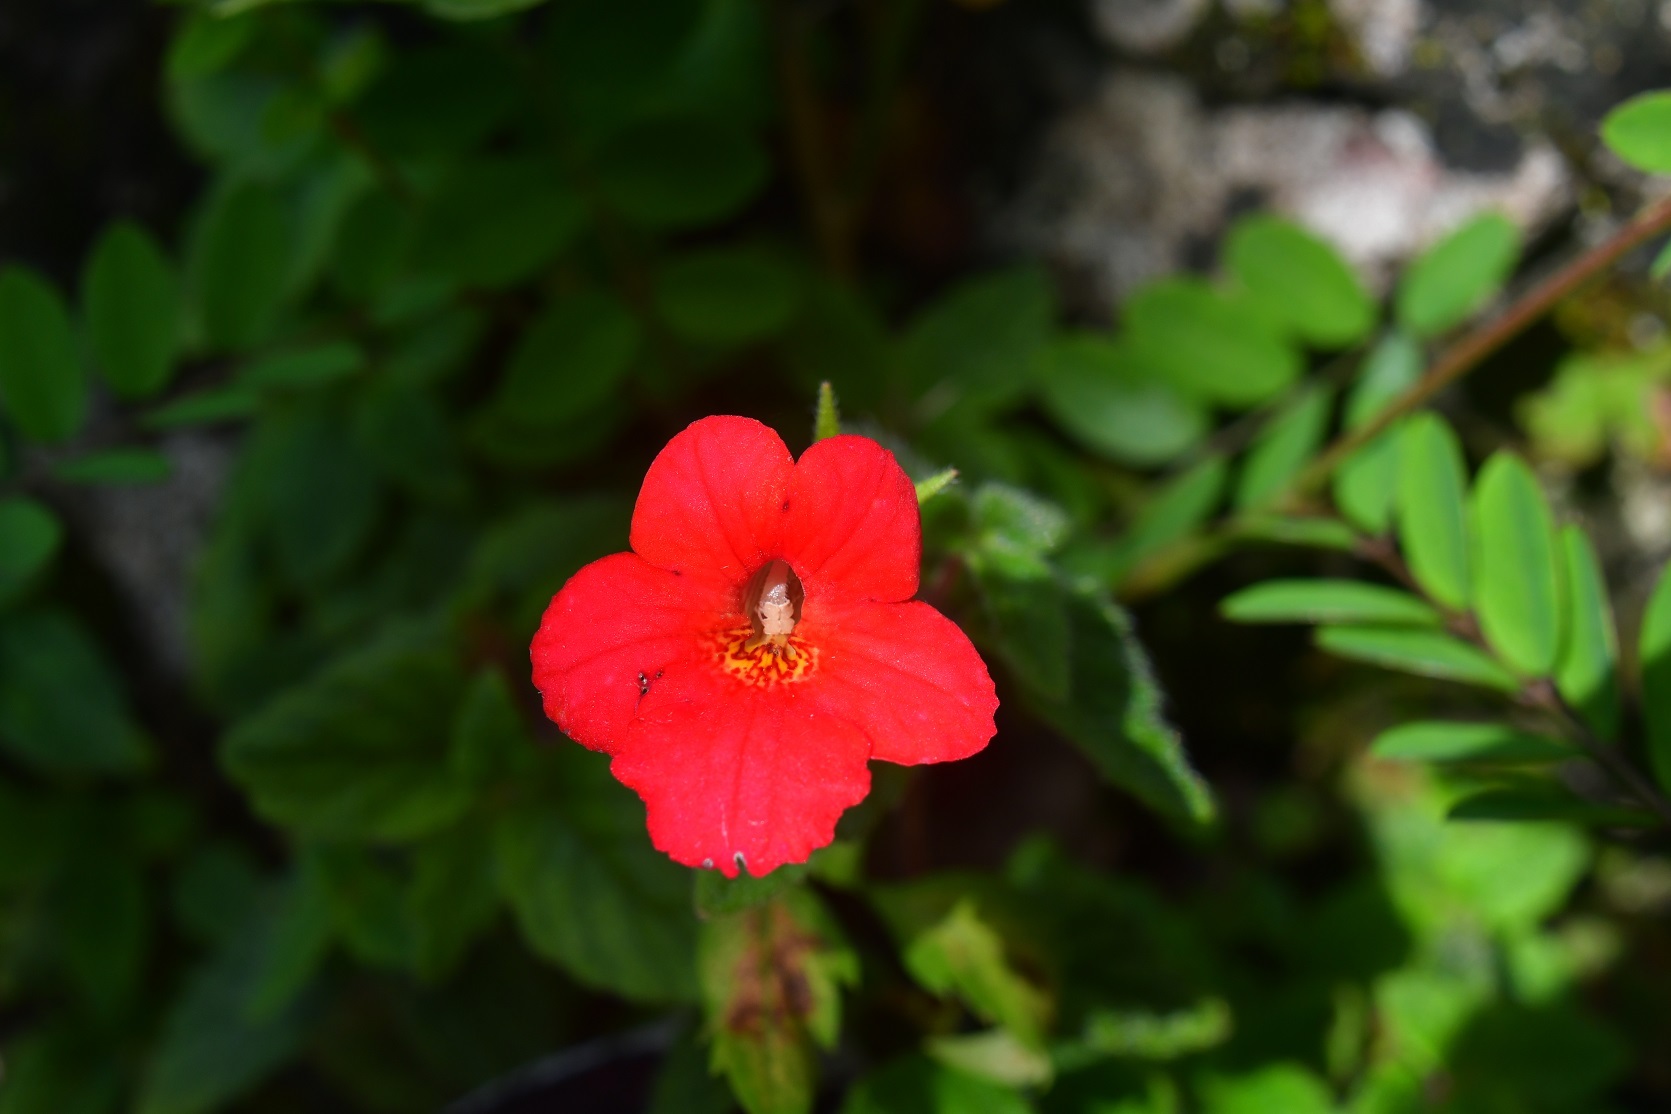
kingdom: Plantae
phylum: Tracheophyta
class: Magnoliopsida
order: Lamiales
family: Gesneriaceae
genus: Achimenes
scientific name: Achimenes erecta
